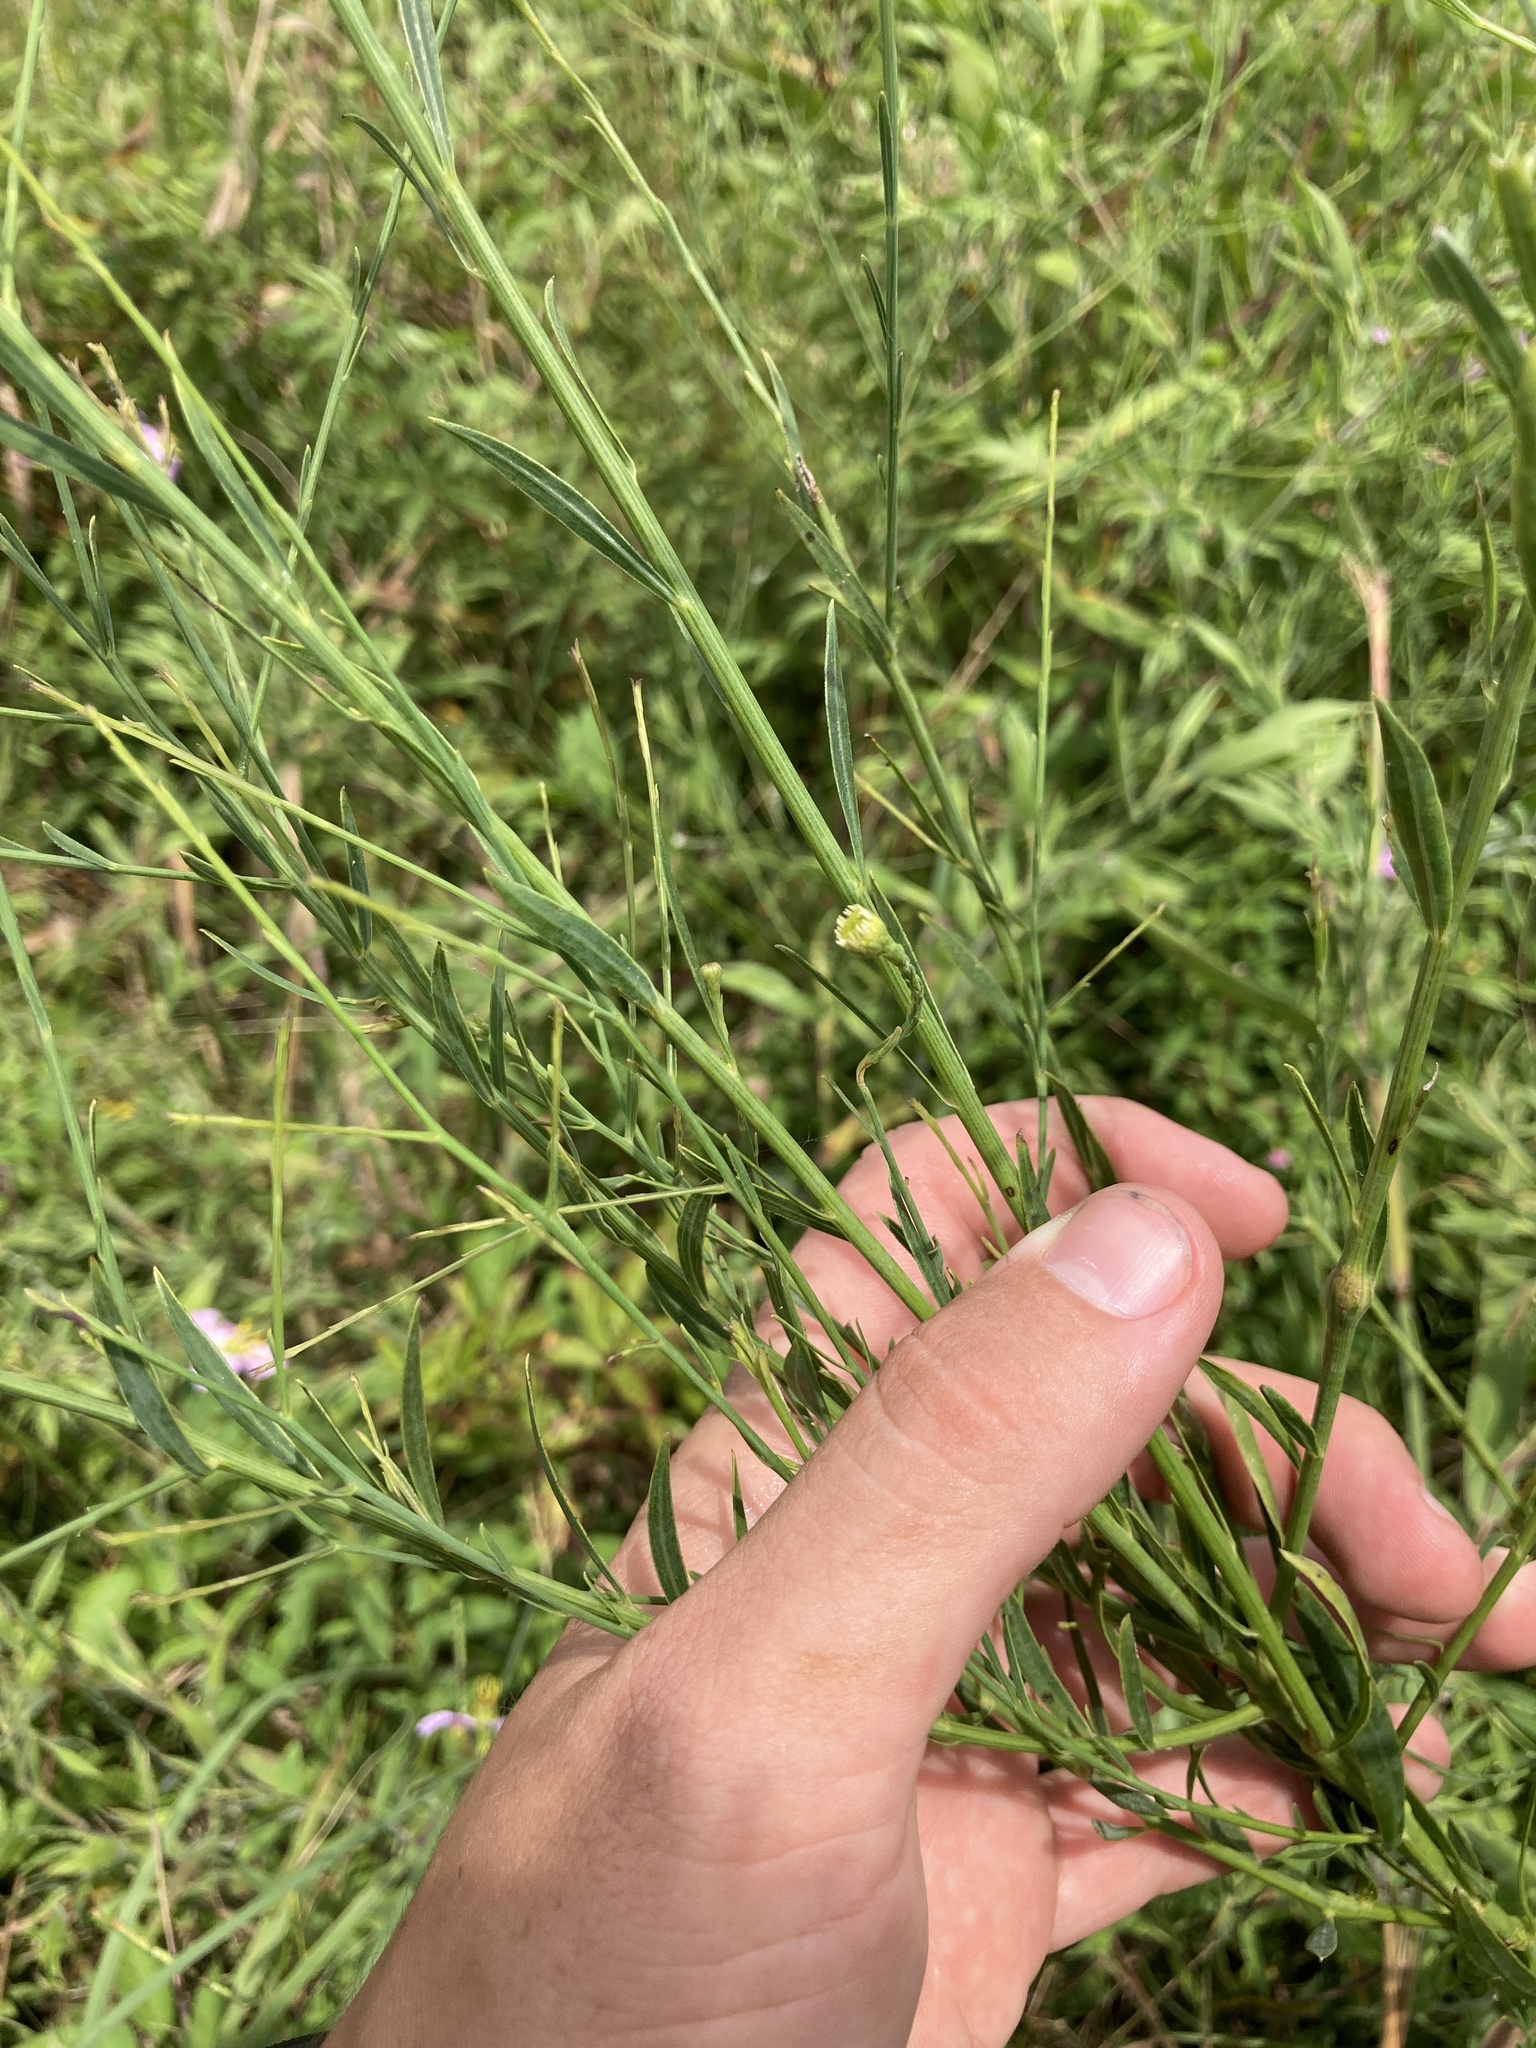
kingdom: Plantae
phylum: Tracheophyta
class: Magnoliopsida
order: Asterales
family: Asteraceae
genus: Boltonia
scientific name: Boltonia diffusa
